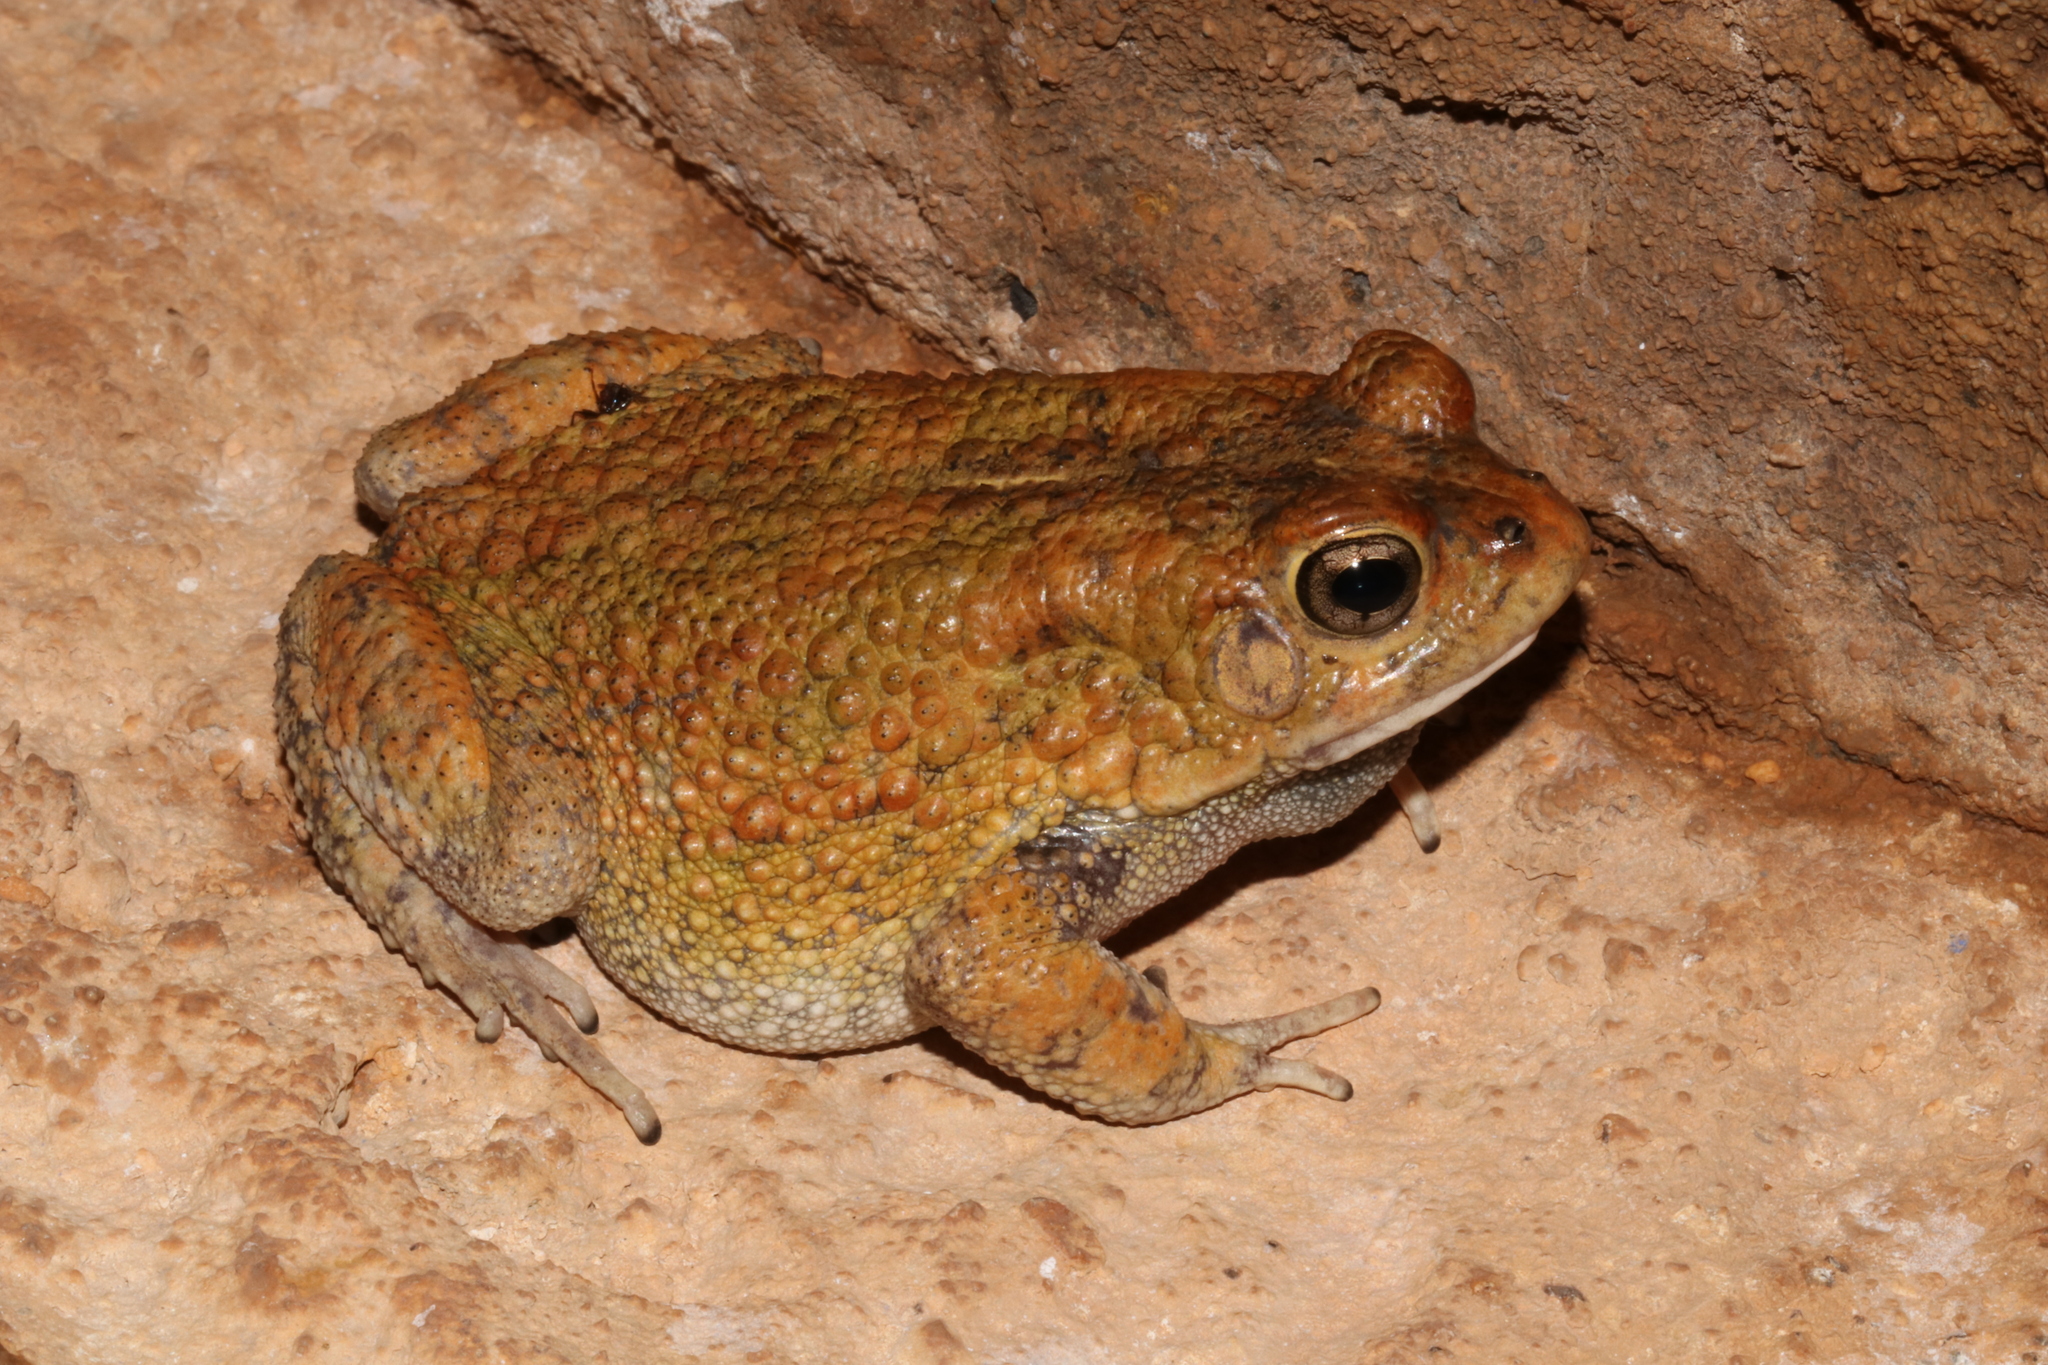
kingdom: Animalia
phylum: Chordata
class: Amphibia
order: Anura
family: Bufonidae
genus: Sclerophrys
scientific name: Sclerophrys pusilla
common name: Merten's striped toad
